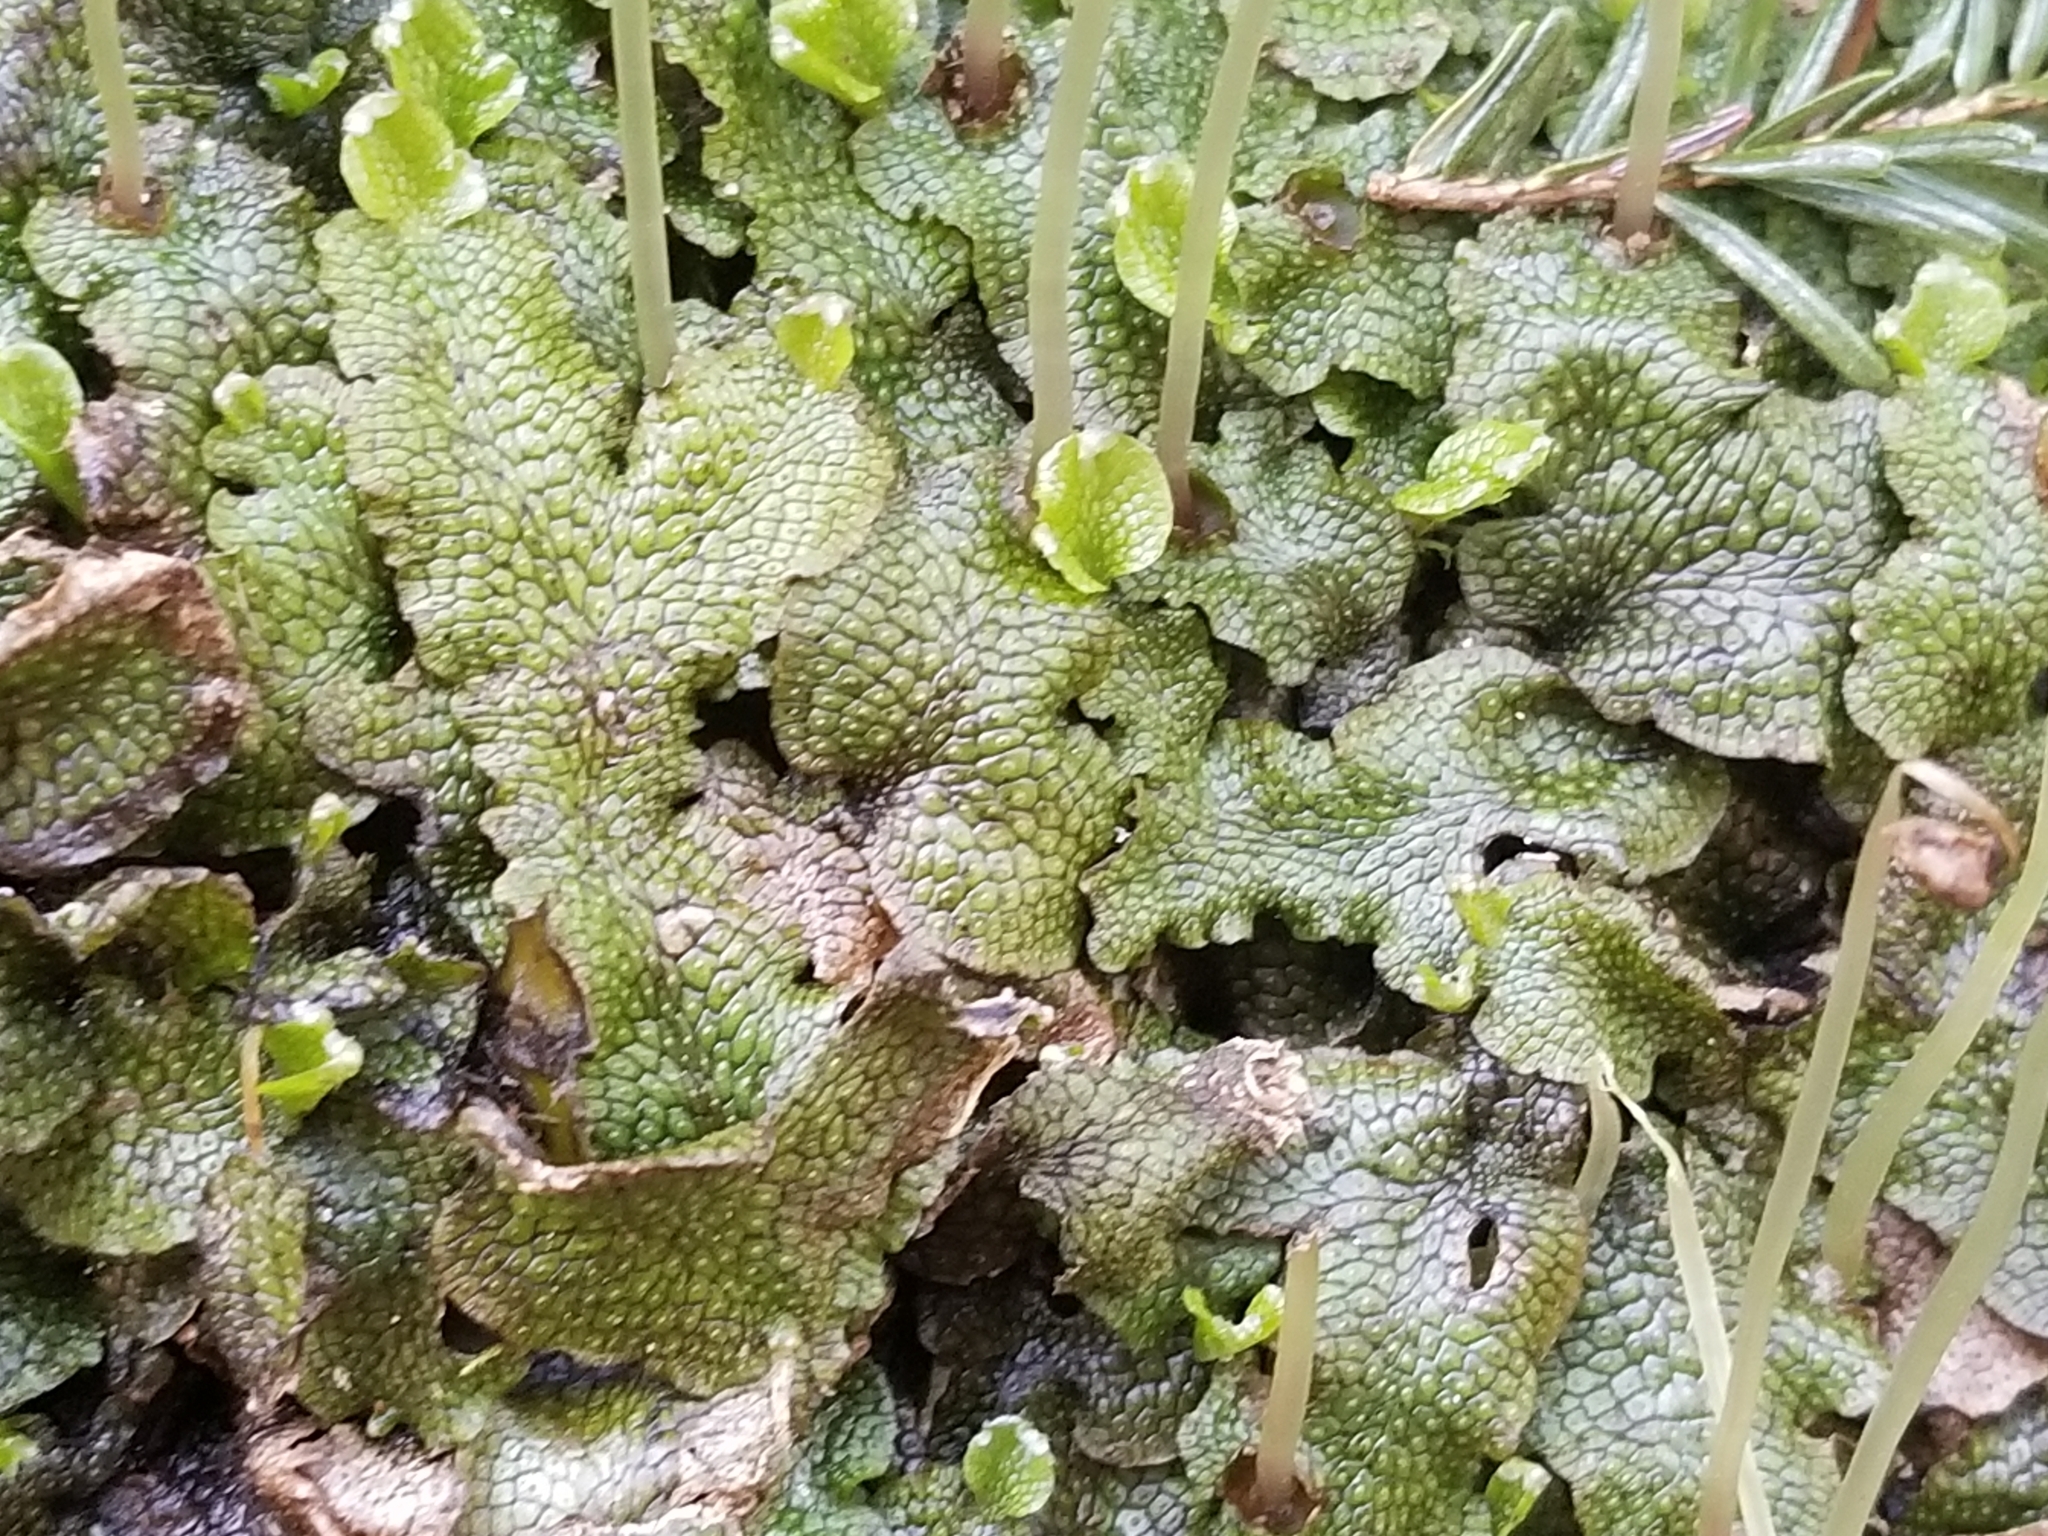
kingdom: Plantae
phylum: Marchantiophyta
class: Marchantiopsida
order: Marchantiales
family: Conocephalaceae
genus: Conocephalum
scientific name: Conocephalum salebrosum
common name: Cat-tongue liverwort
